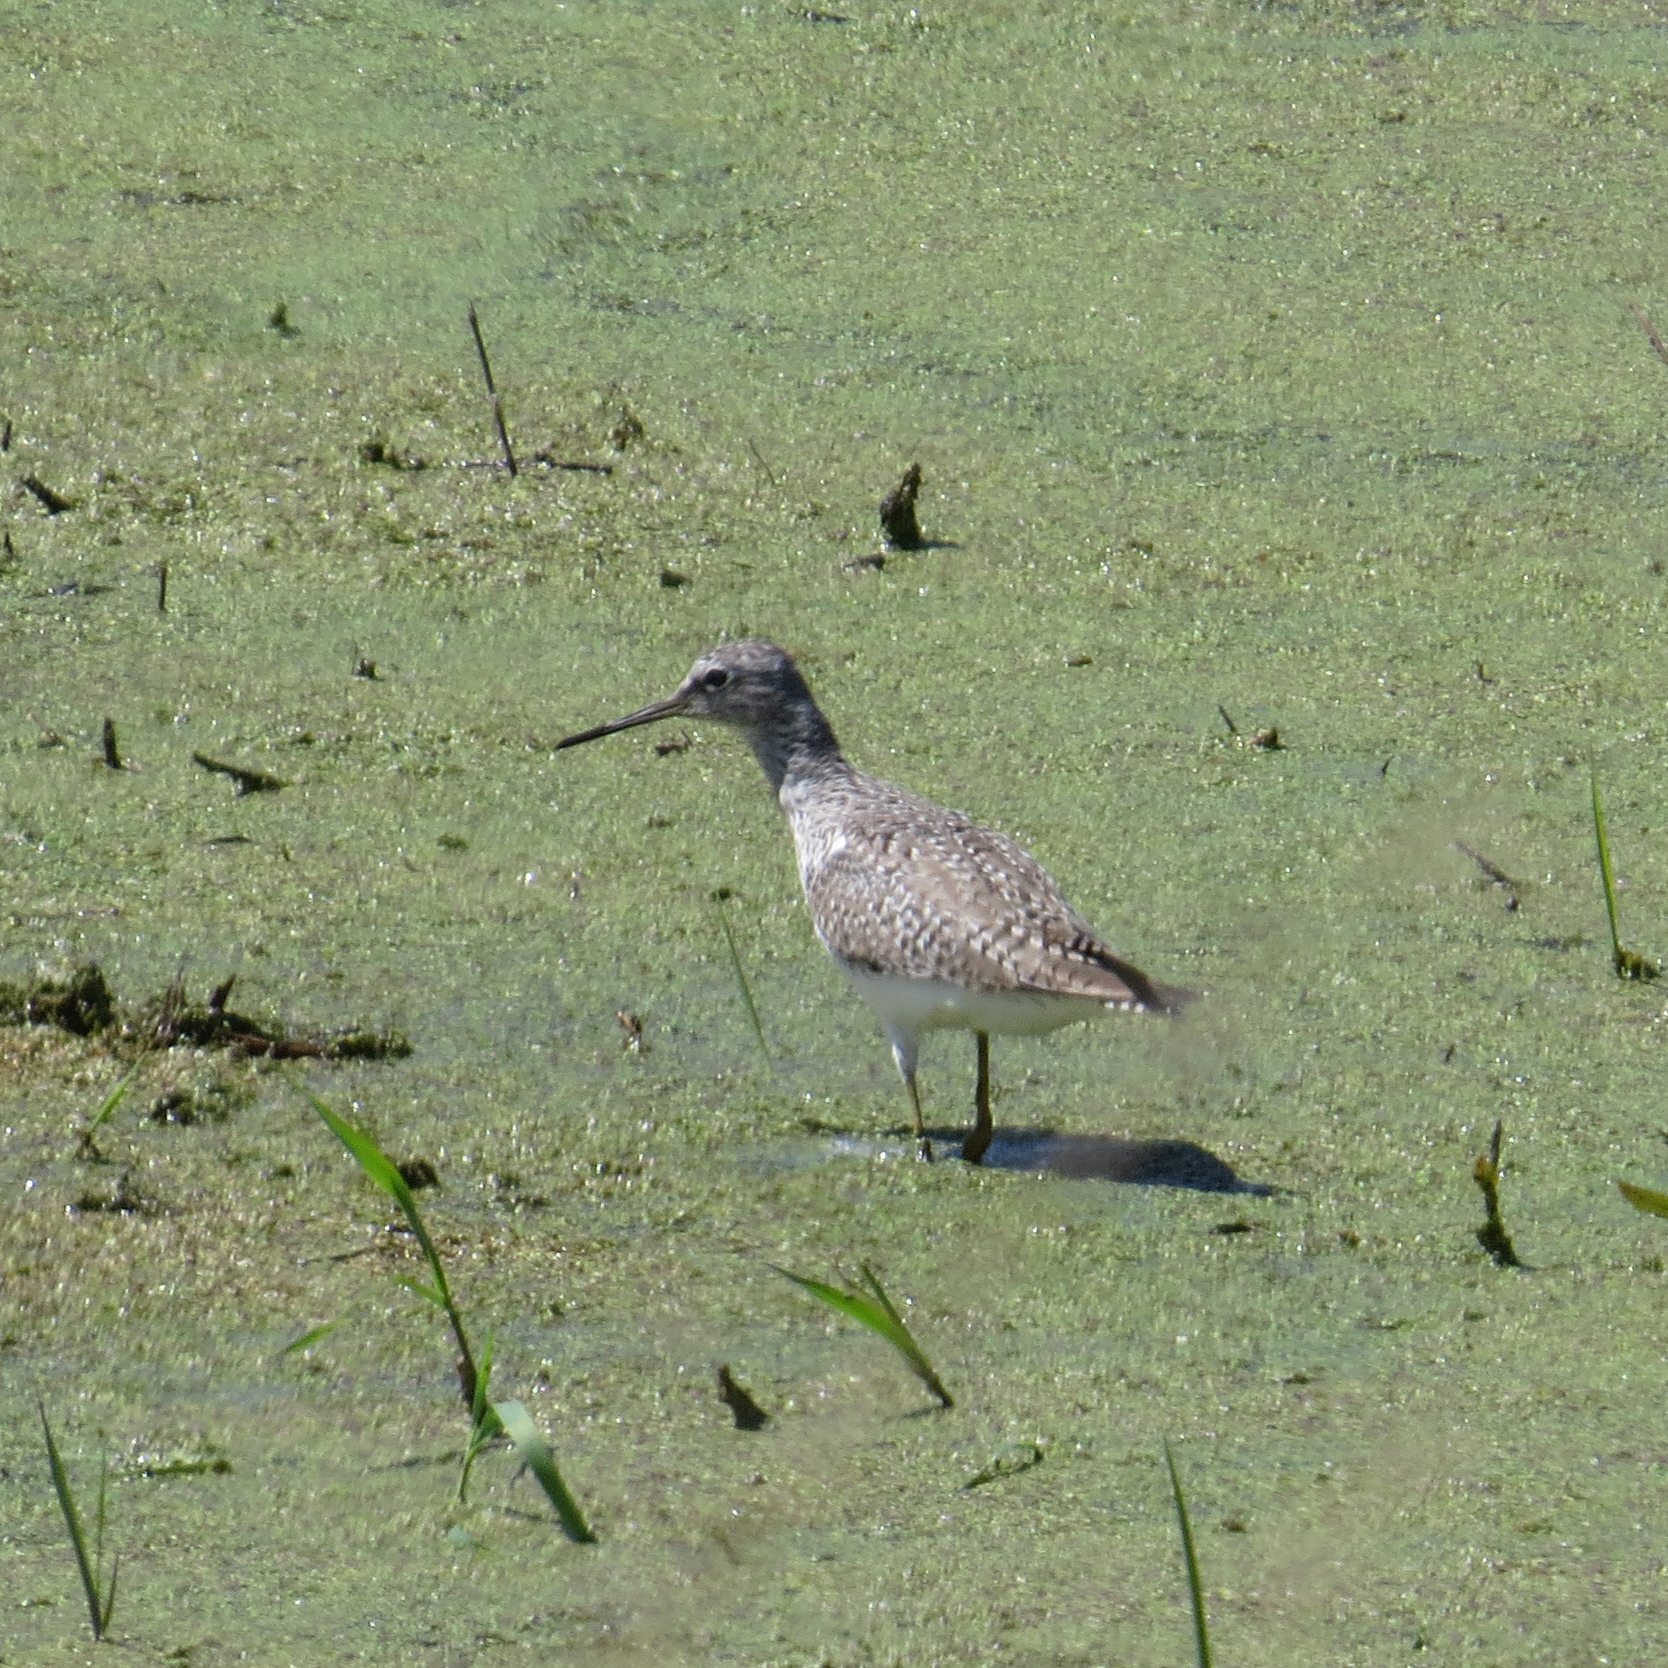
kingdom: Animalia
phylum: Chordata
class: Aves
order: Charadriiformes
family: Scolopacidae
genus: Tringa
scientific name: Tringa melanoleuca
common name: Greater yellowlegs
